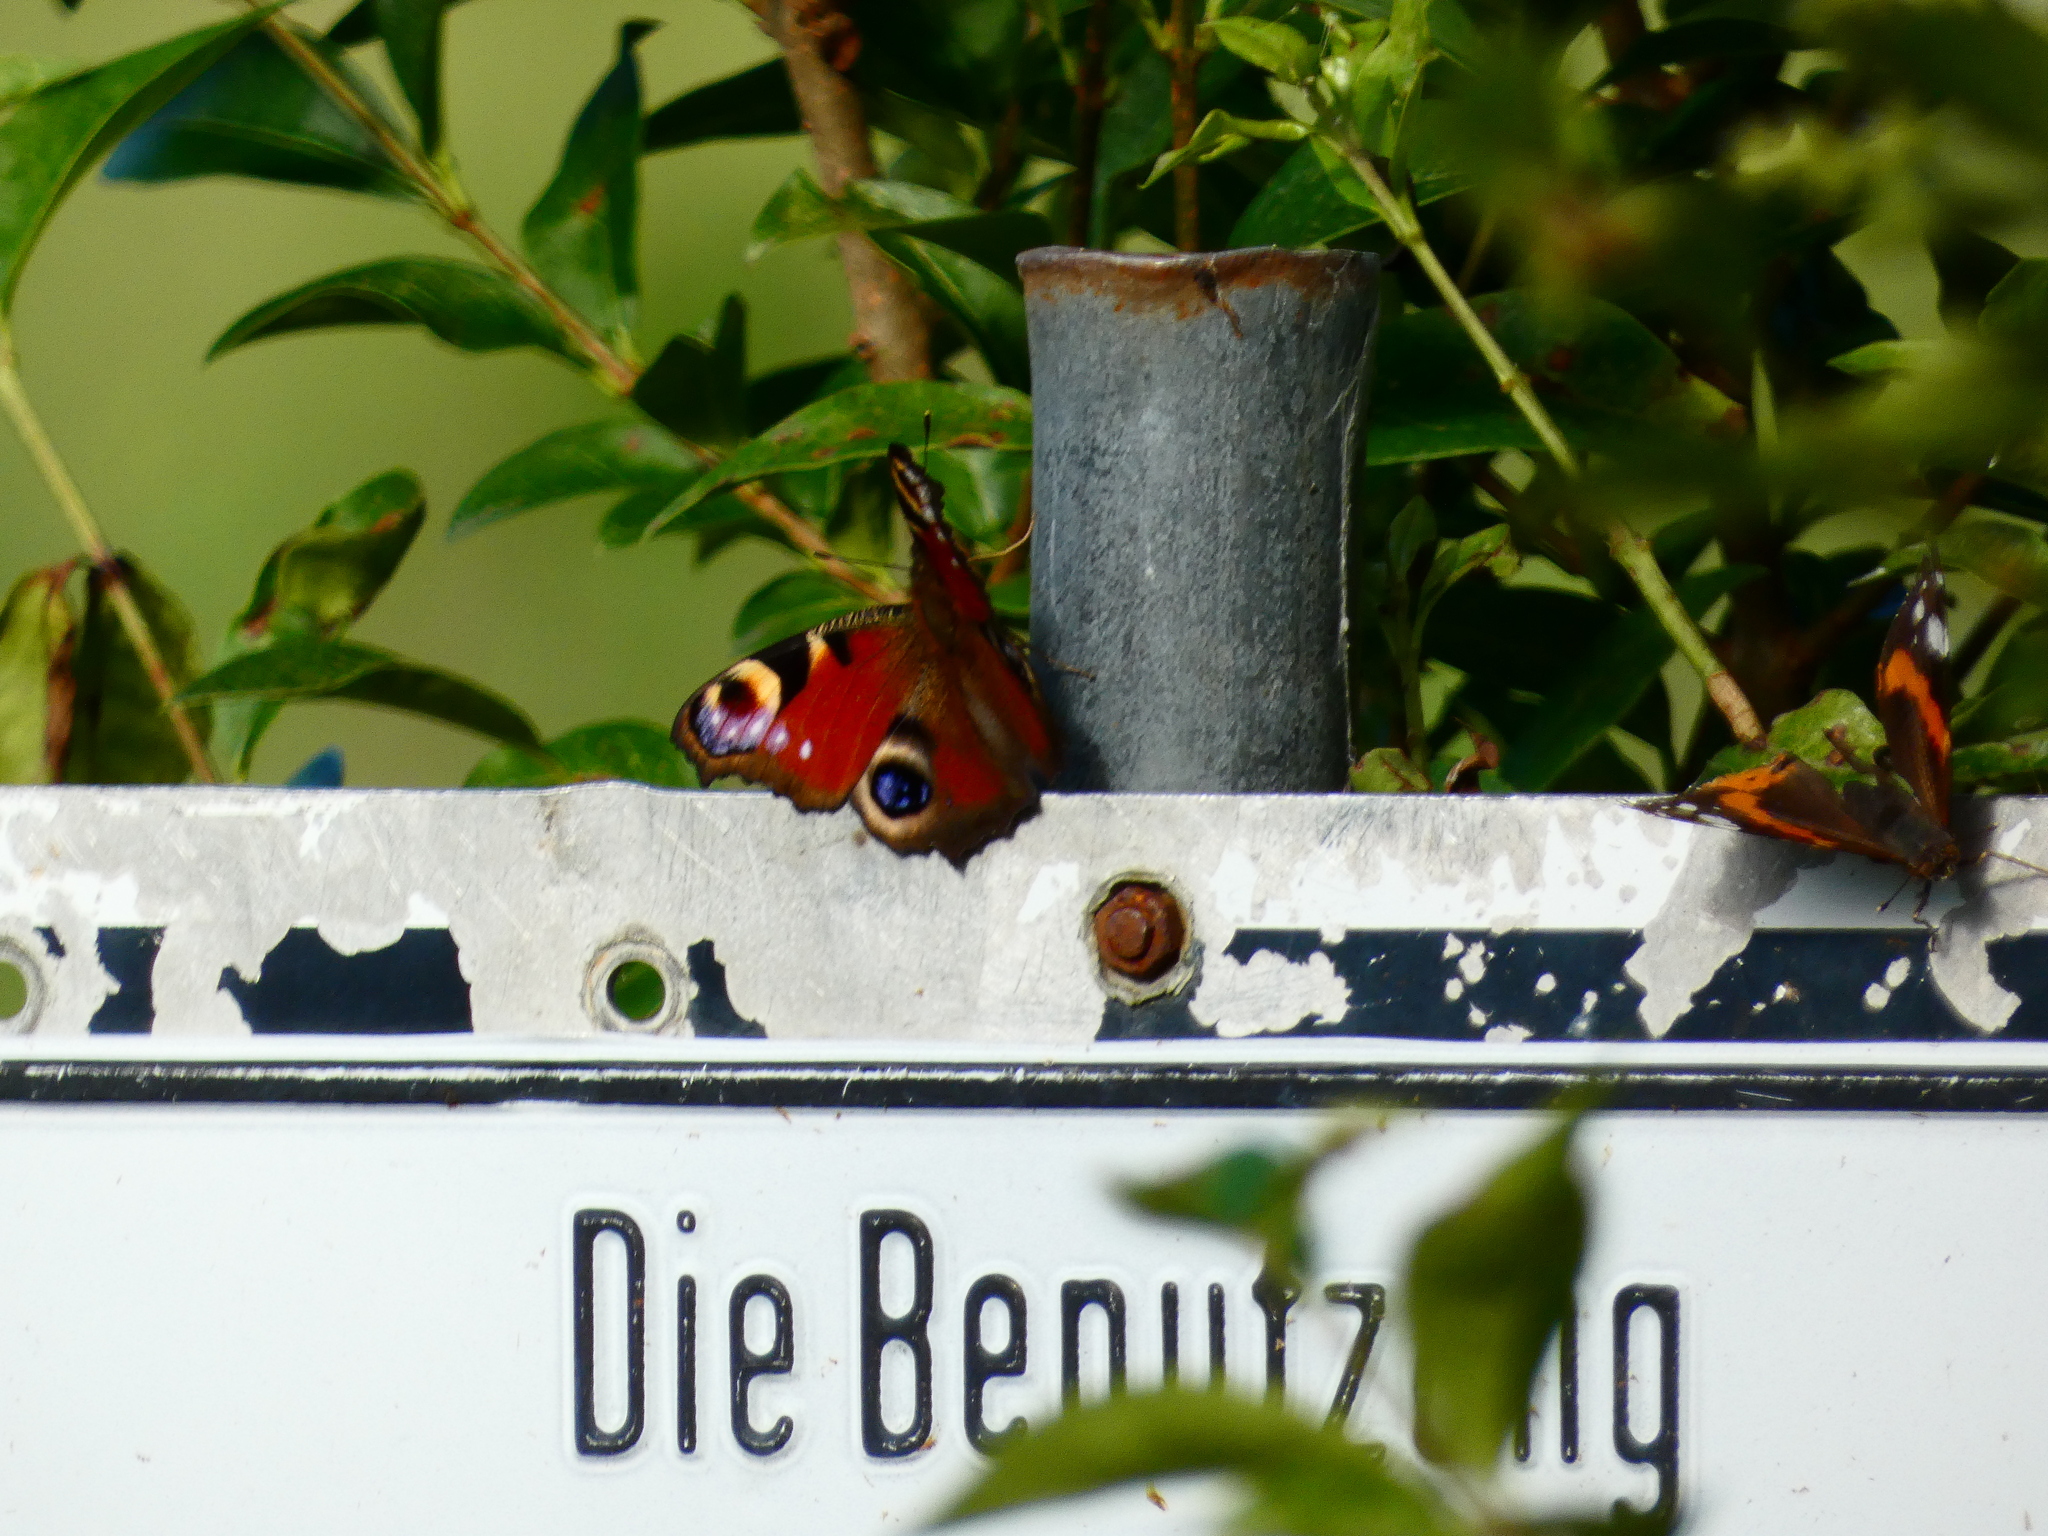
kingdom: Animalia
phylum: Arthropoda
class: Insecta
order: Lepidoptera
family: Nymphalidae
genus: Aglais
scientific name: Aglais io
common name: Peacock
